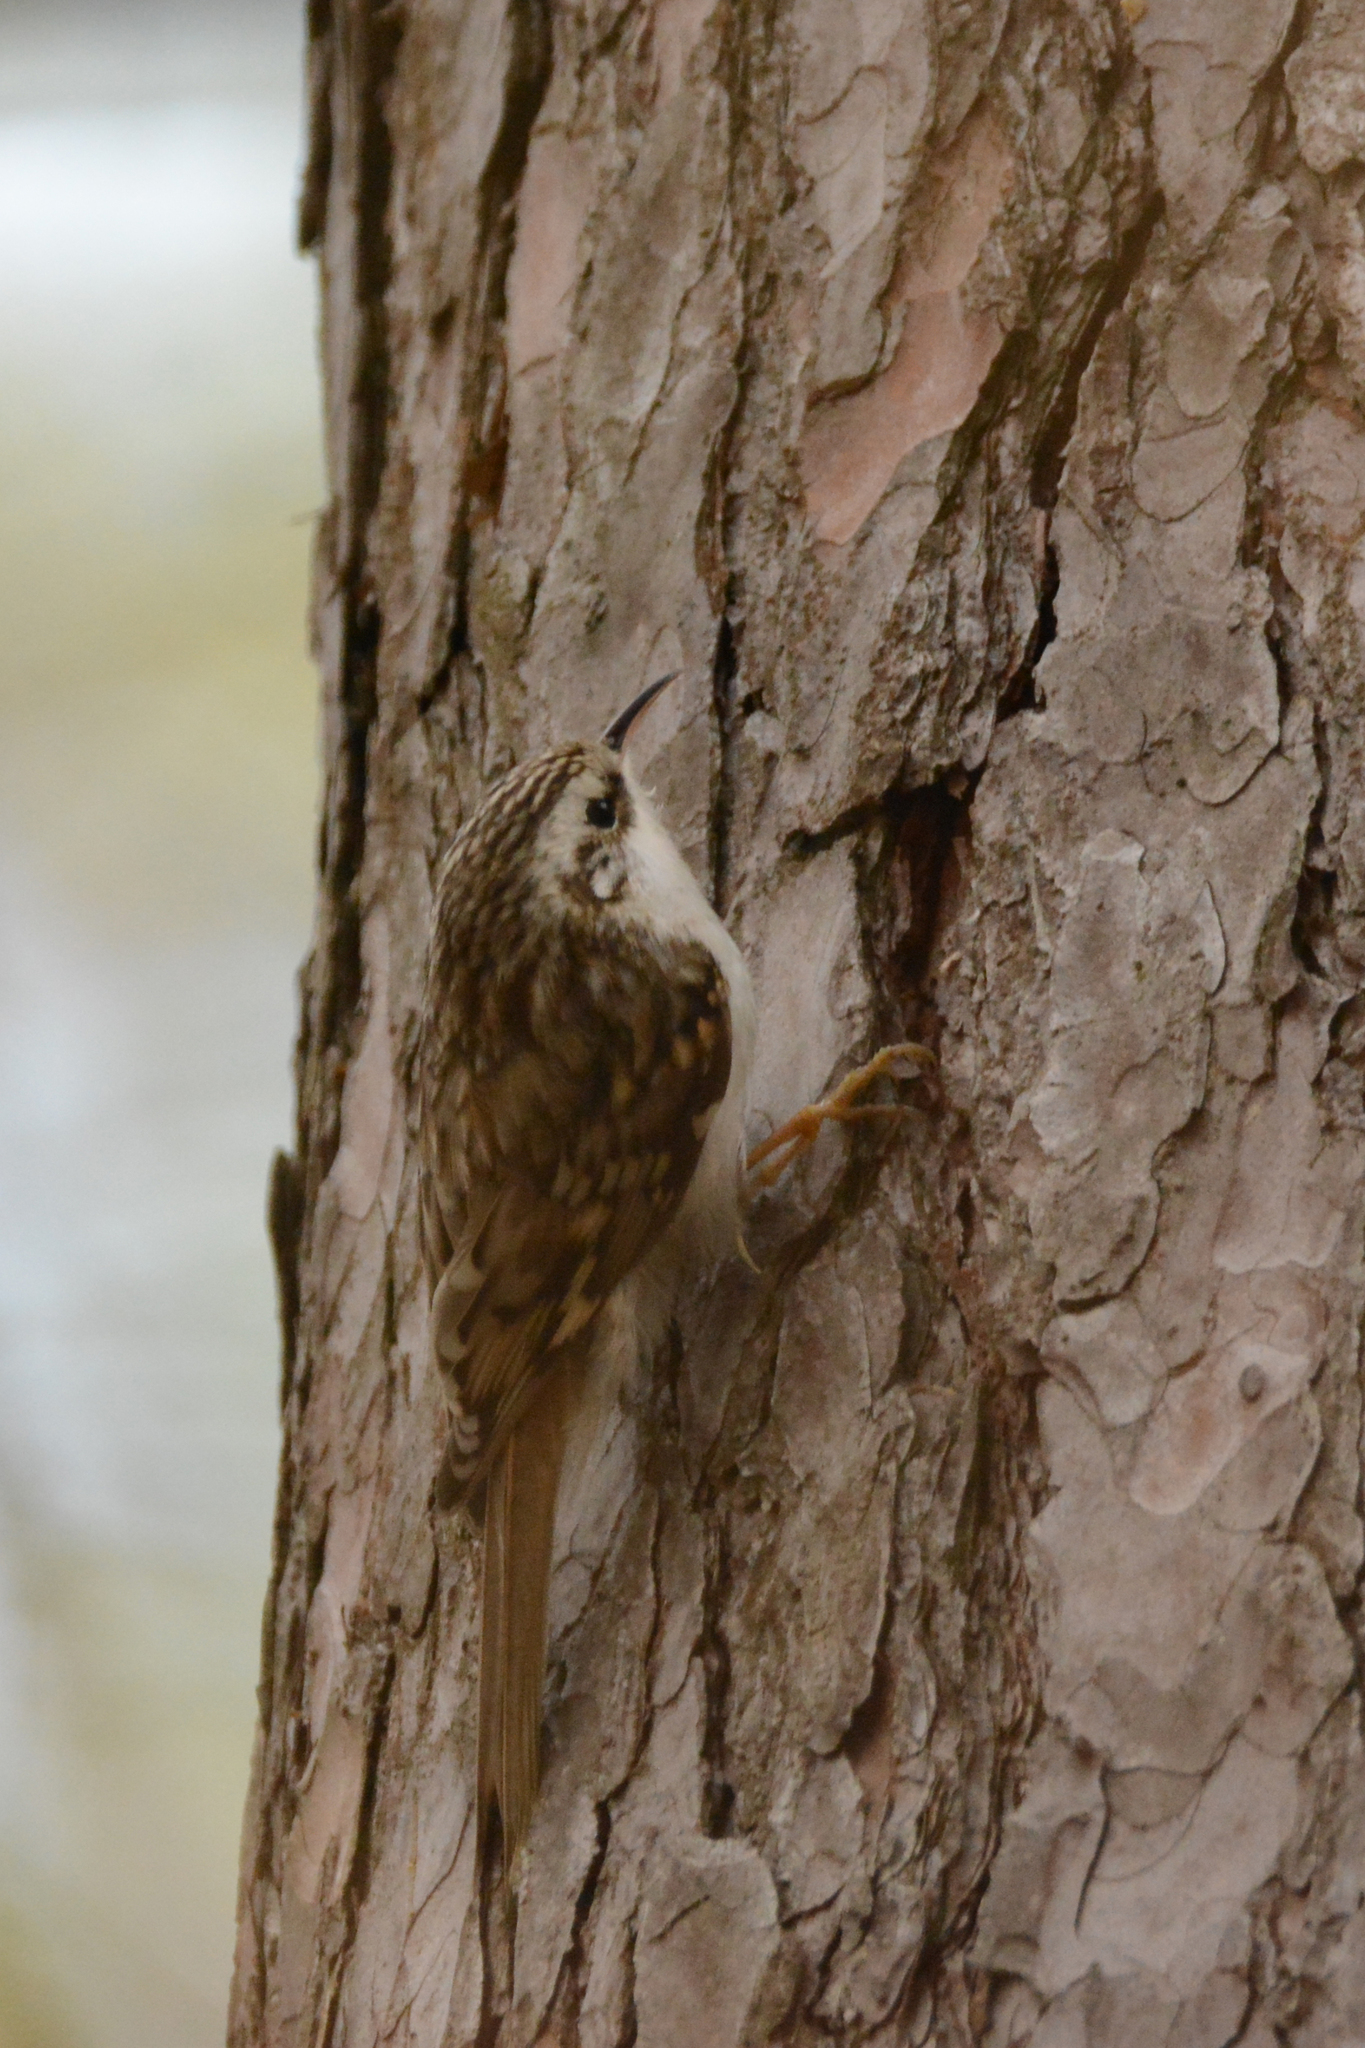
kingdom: Animalia
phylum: Chordata
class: Aves
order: Passeriformes
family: Certhiidae
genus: Certhia
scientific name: Certhia familiaris
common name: Eurasian treecreeper
